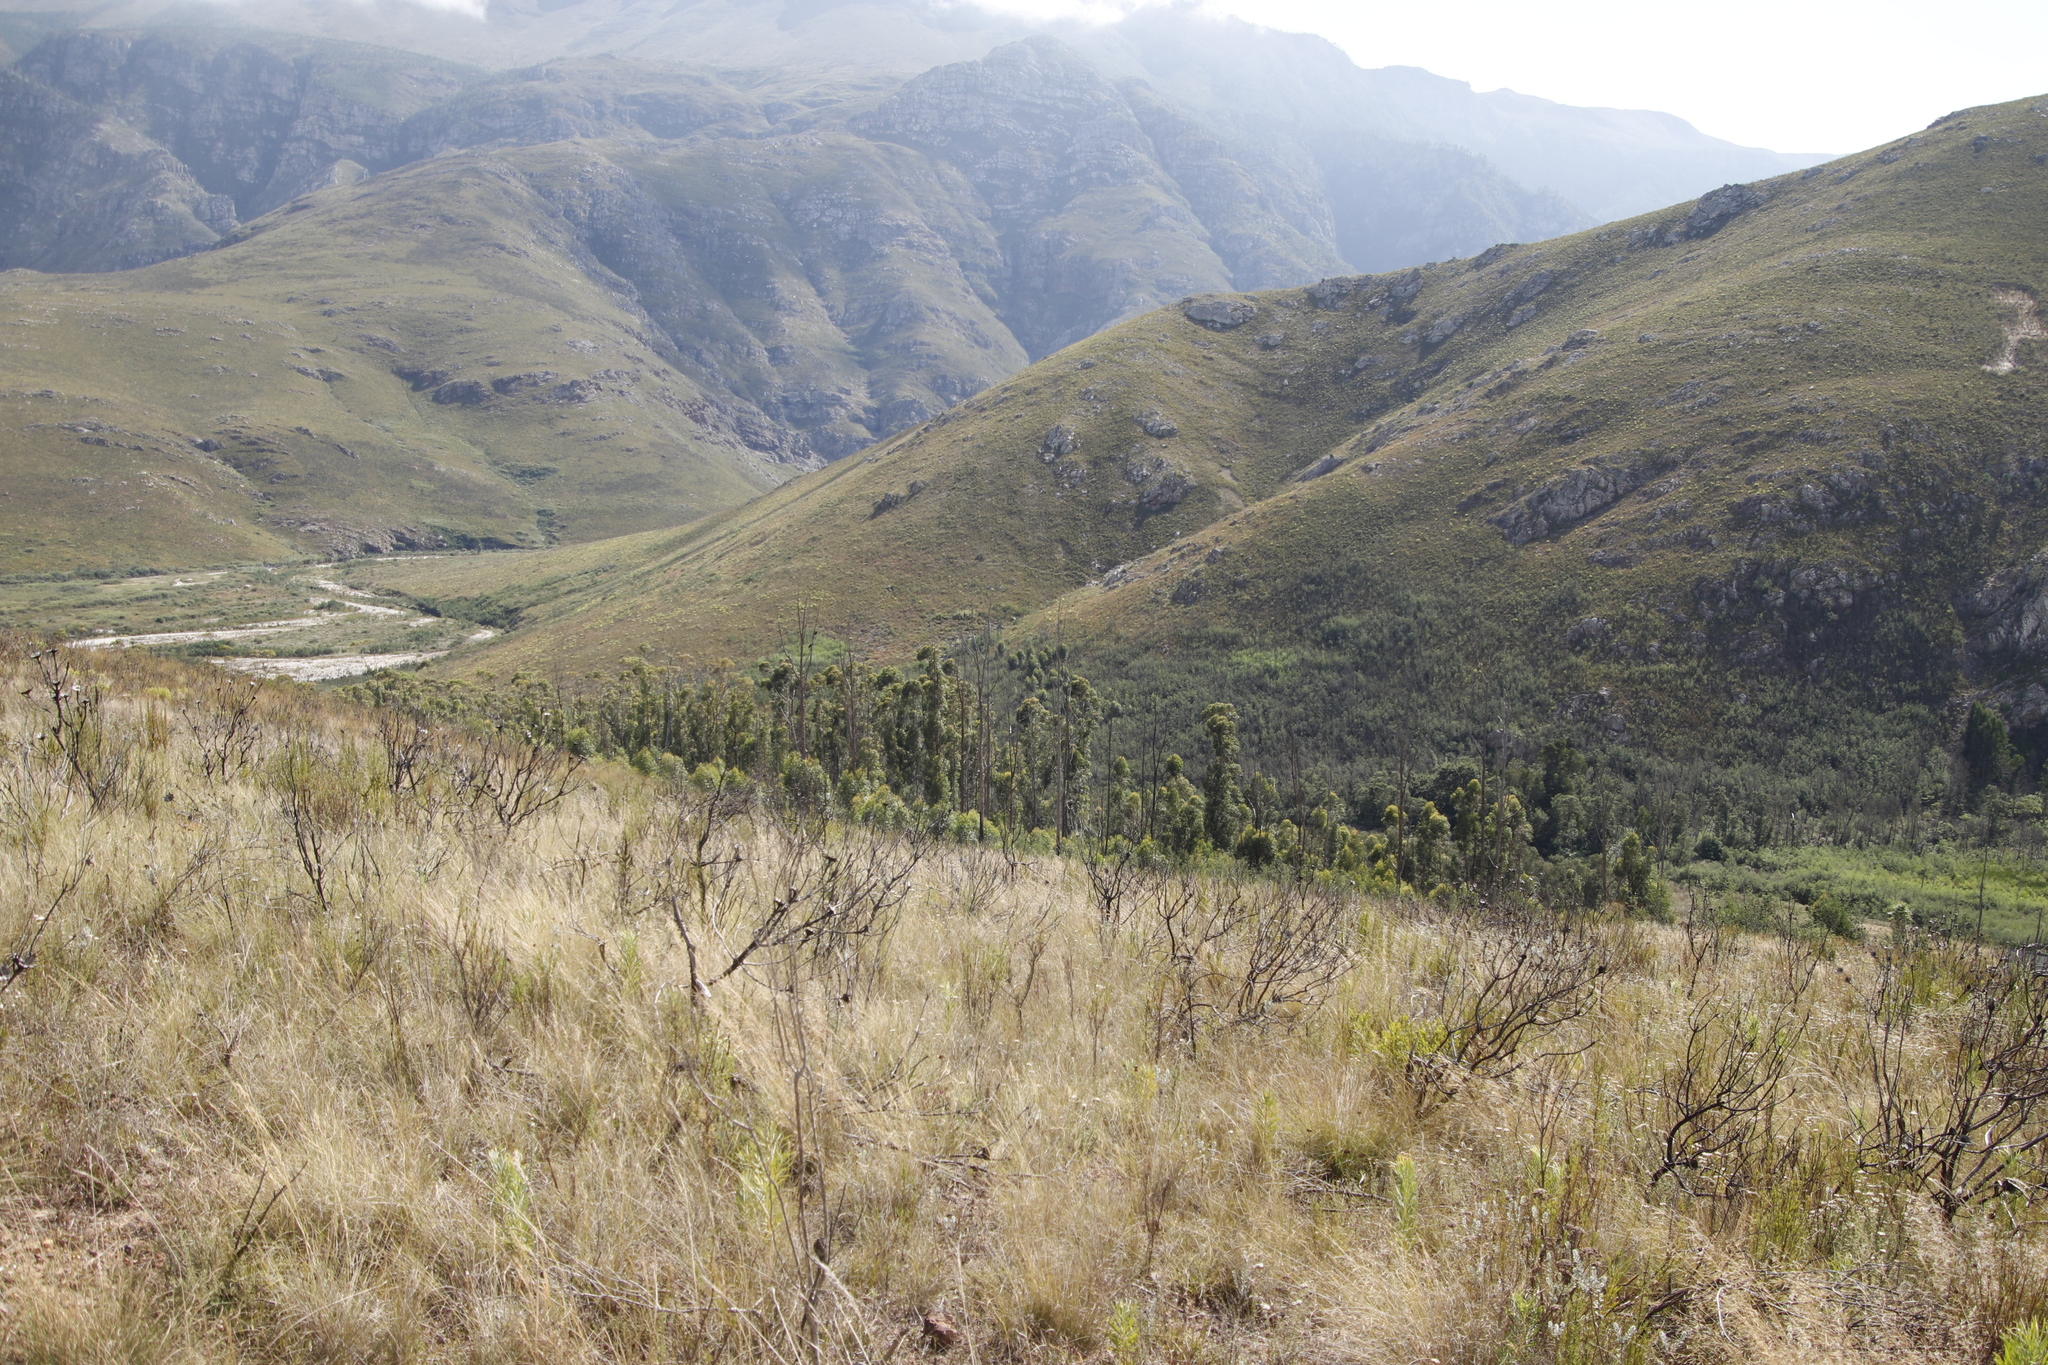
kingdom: Plantae
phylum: Tracheophyta
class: Magnoliopsida
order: Proteales
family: Proteaceae
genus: Protea
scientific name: Protea repens
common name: Sugarbush
